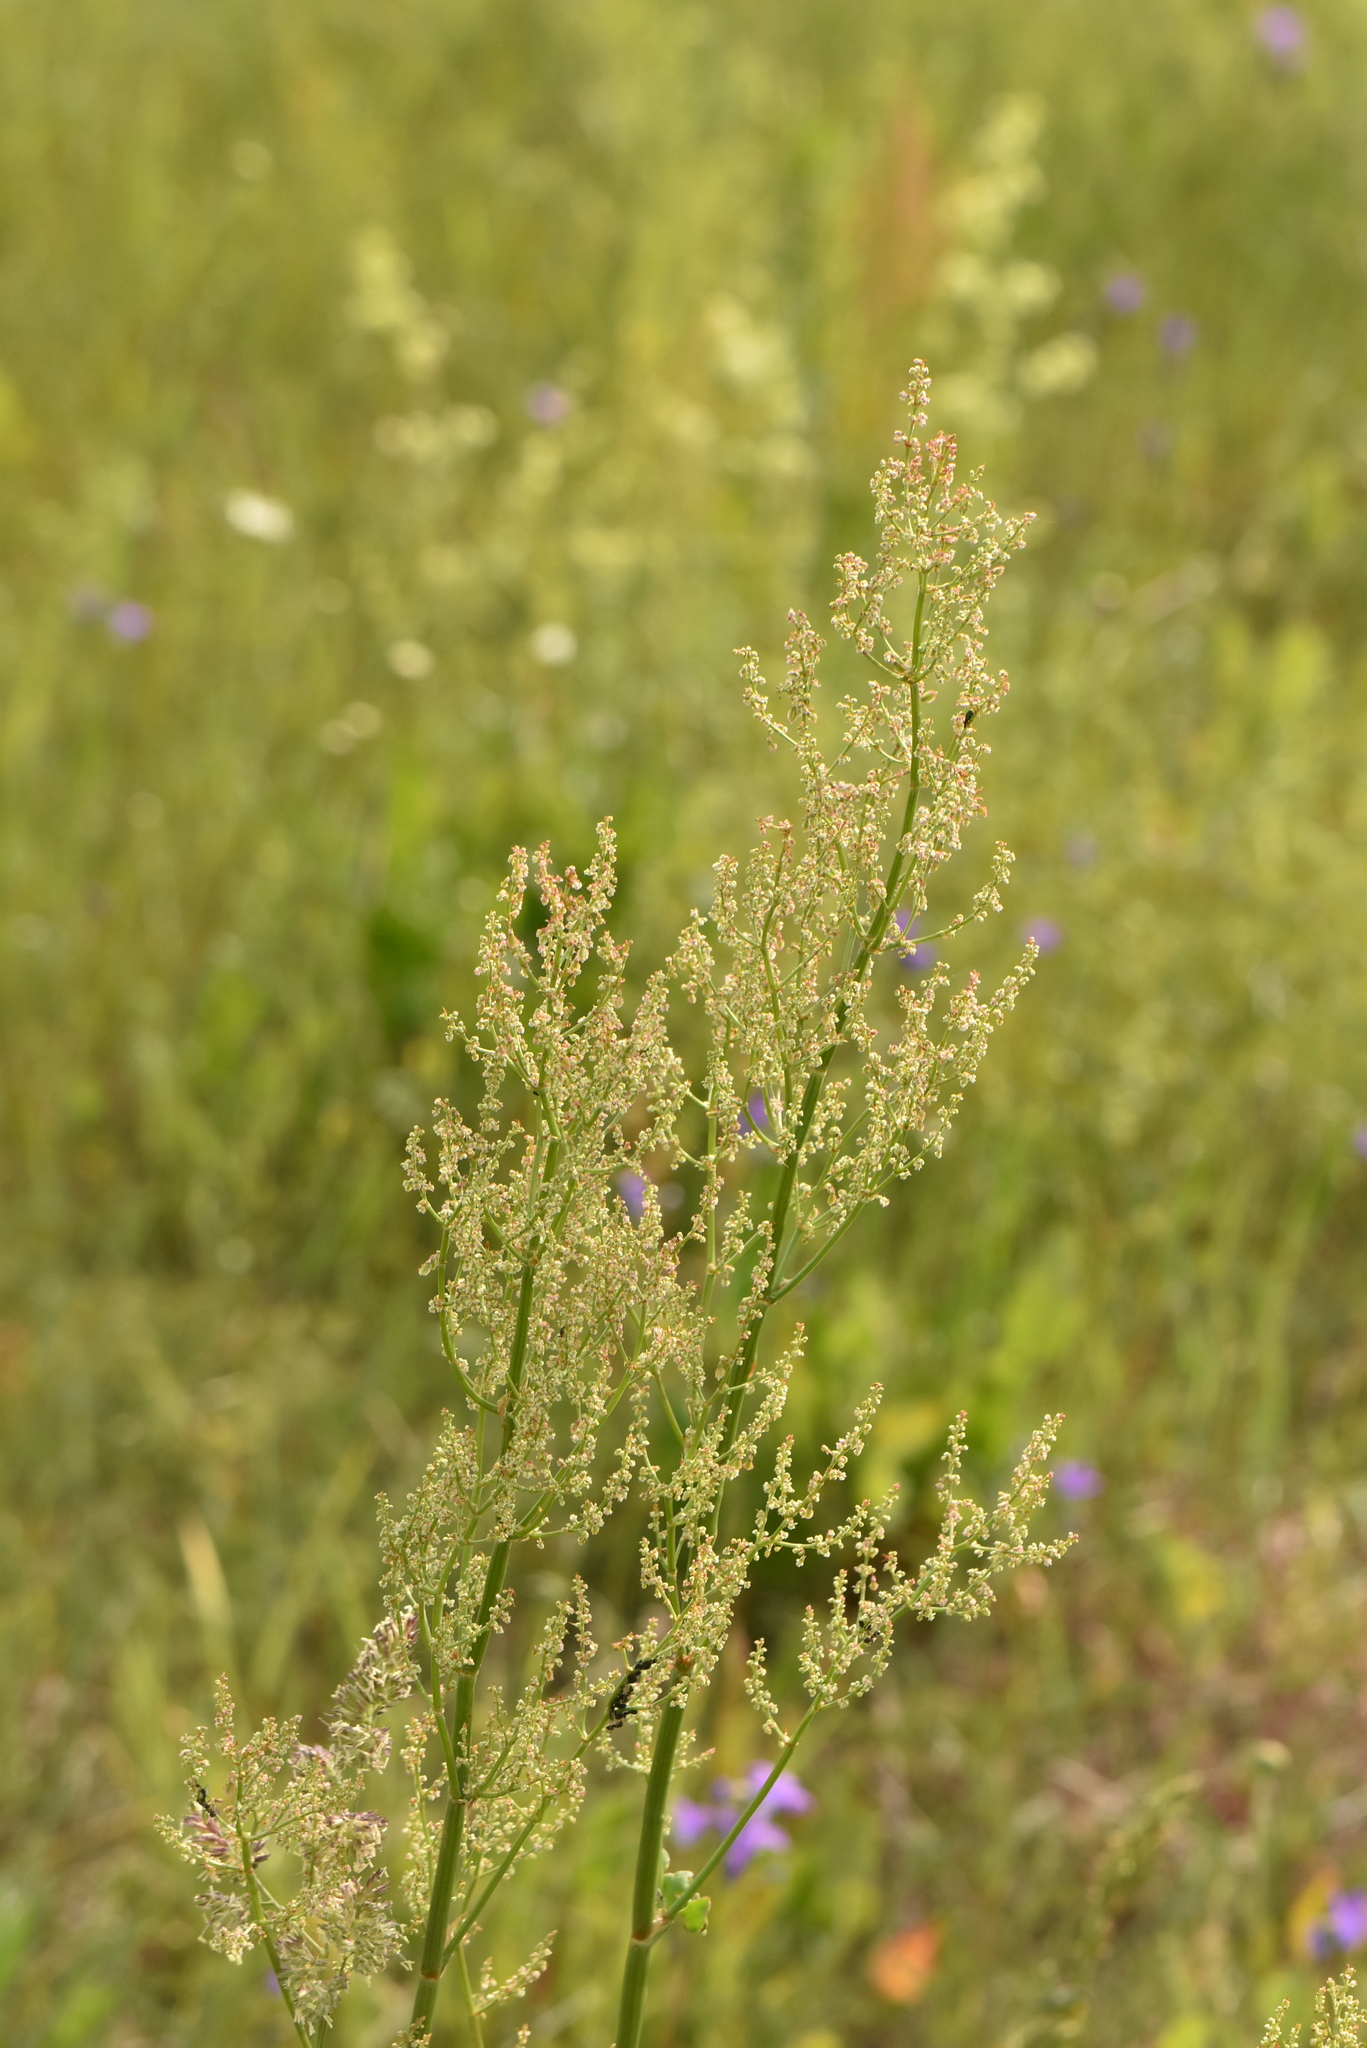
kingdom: Plantae
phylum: Tracheophyta
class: Magnoliopsida
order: Caryophyllales
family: Polygonaceae
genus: Rumex
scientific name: Rumex thyrsiflorus
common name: Garden sorrel
